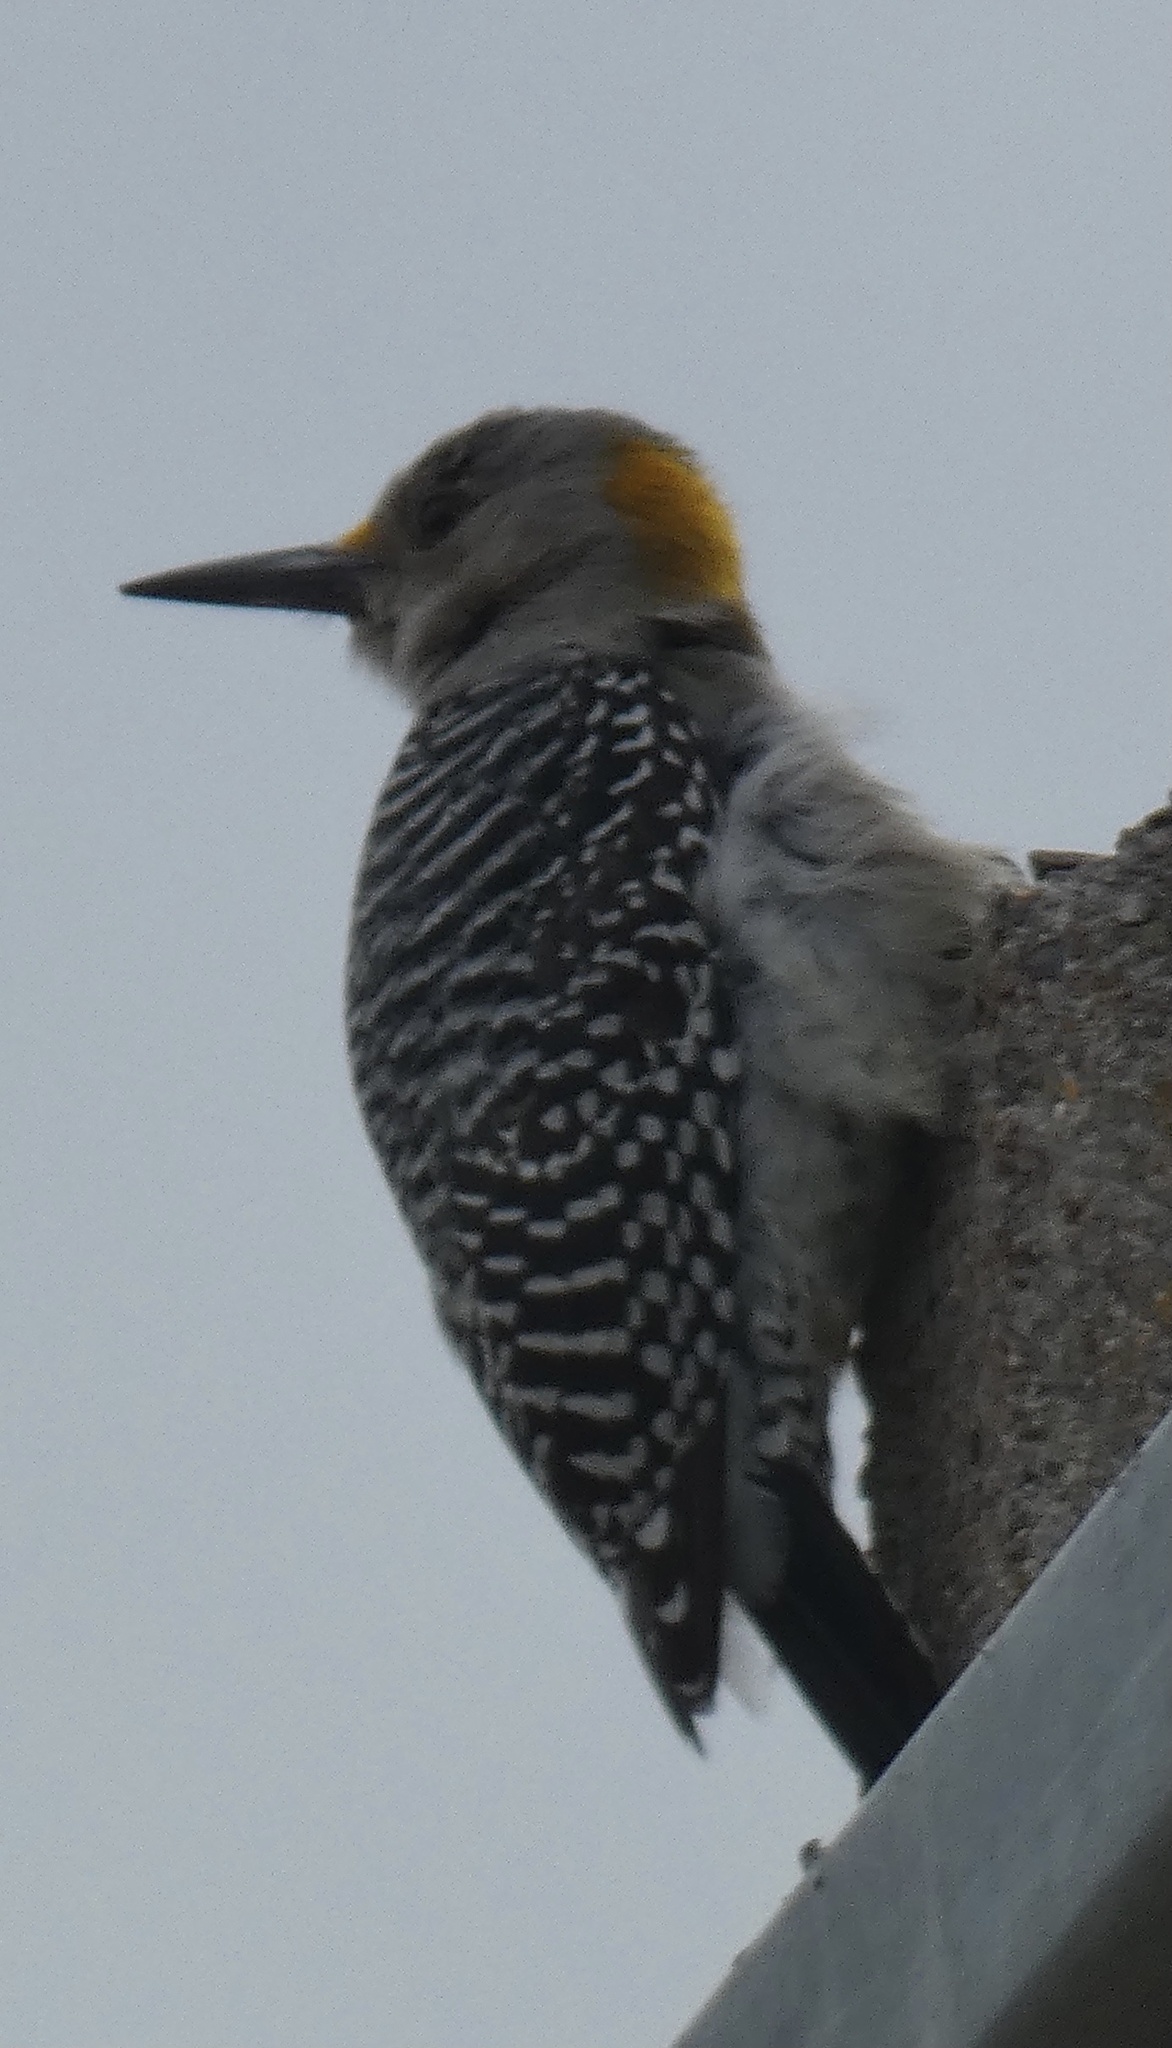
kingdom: Animalia
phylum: Chordata
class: Aves
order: Piciformes
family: Picidae
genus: Melanerpes
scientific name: Melanerpes aurifrons
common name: Golden-fronted woodpecker
